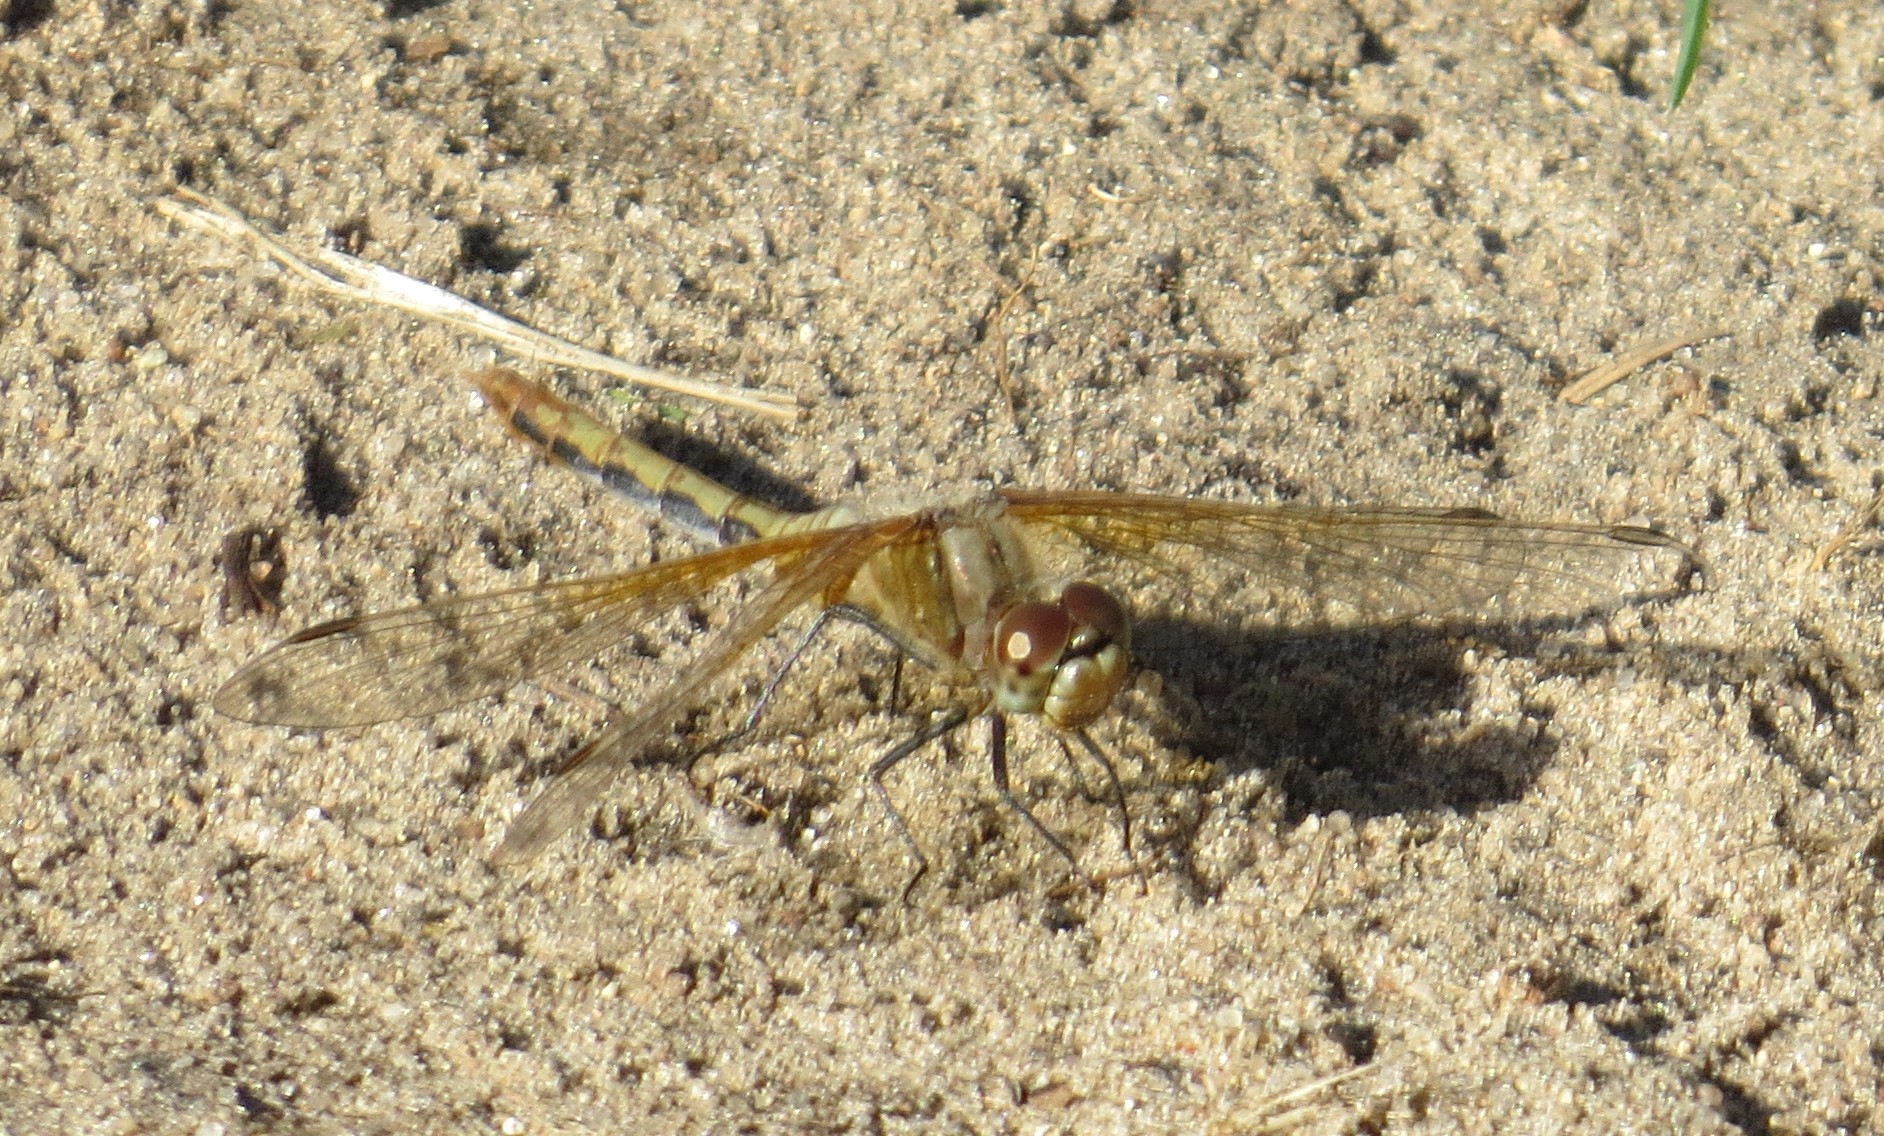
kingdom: Animalia
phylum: Arthropoda
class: Insecta
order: Odonata
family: Libellulidae
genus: Sympetrum
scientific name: Sympetrum semicinctum
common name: Band-winged meadowhawk
